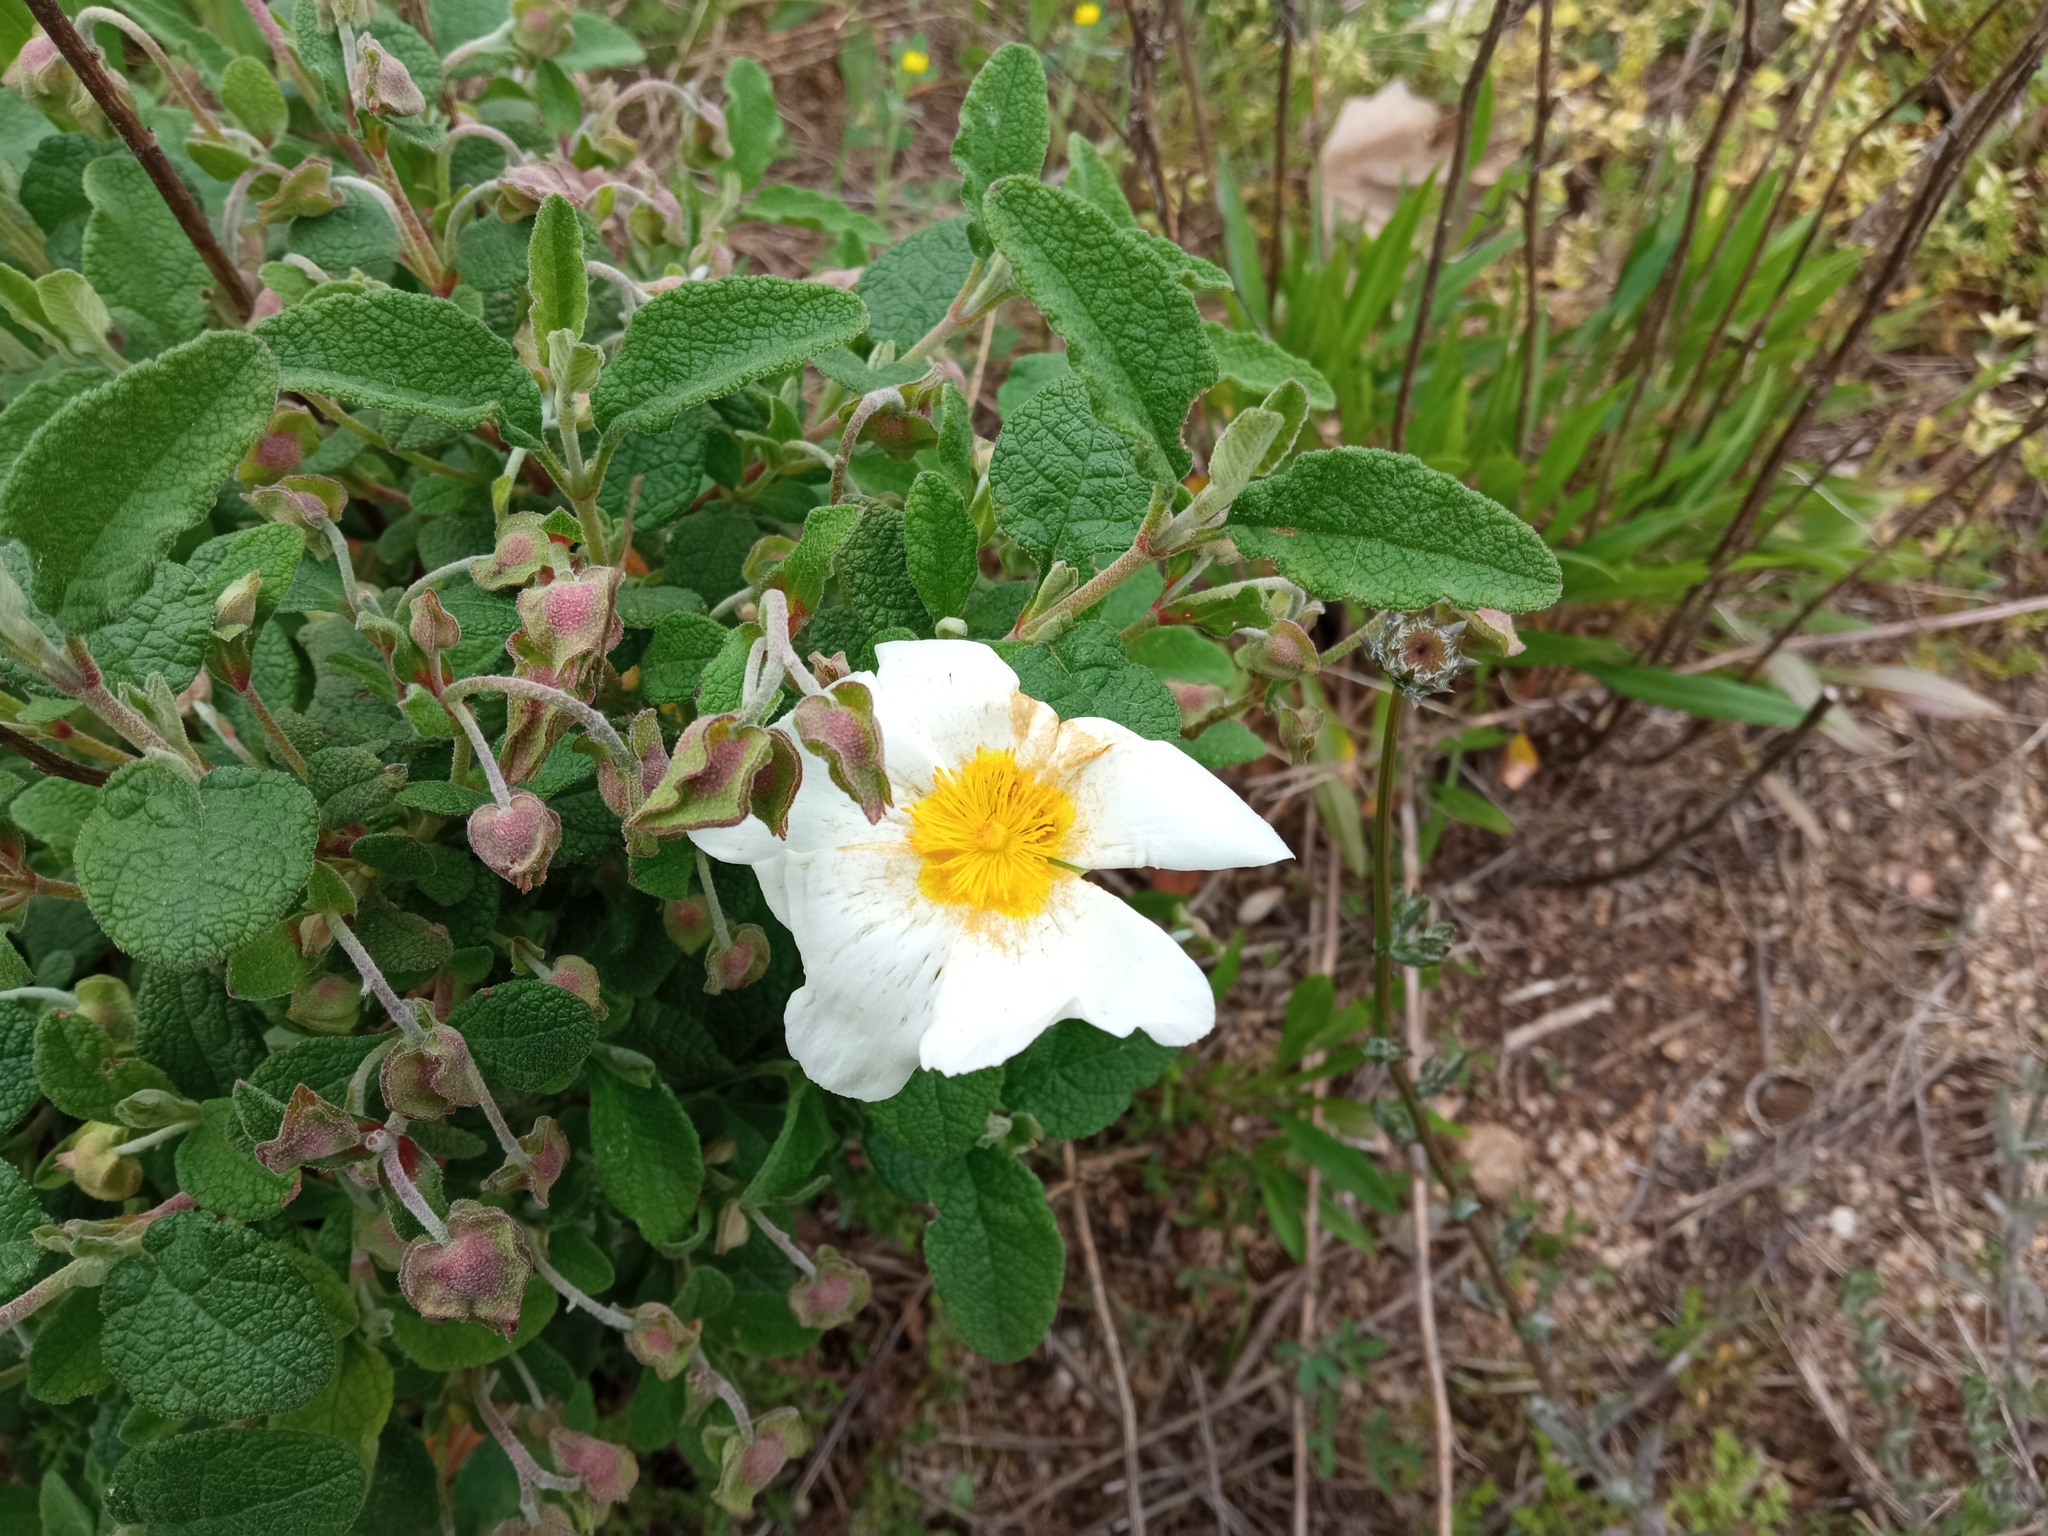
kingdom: Plantae
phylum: Tracheophyta
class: Magnoliopsida
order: Malvales
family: Cistaceae
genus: Cistus
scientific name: Cistus salviifolius
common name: Salvia cistus
